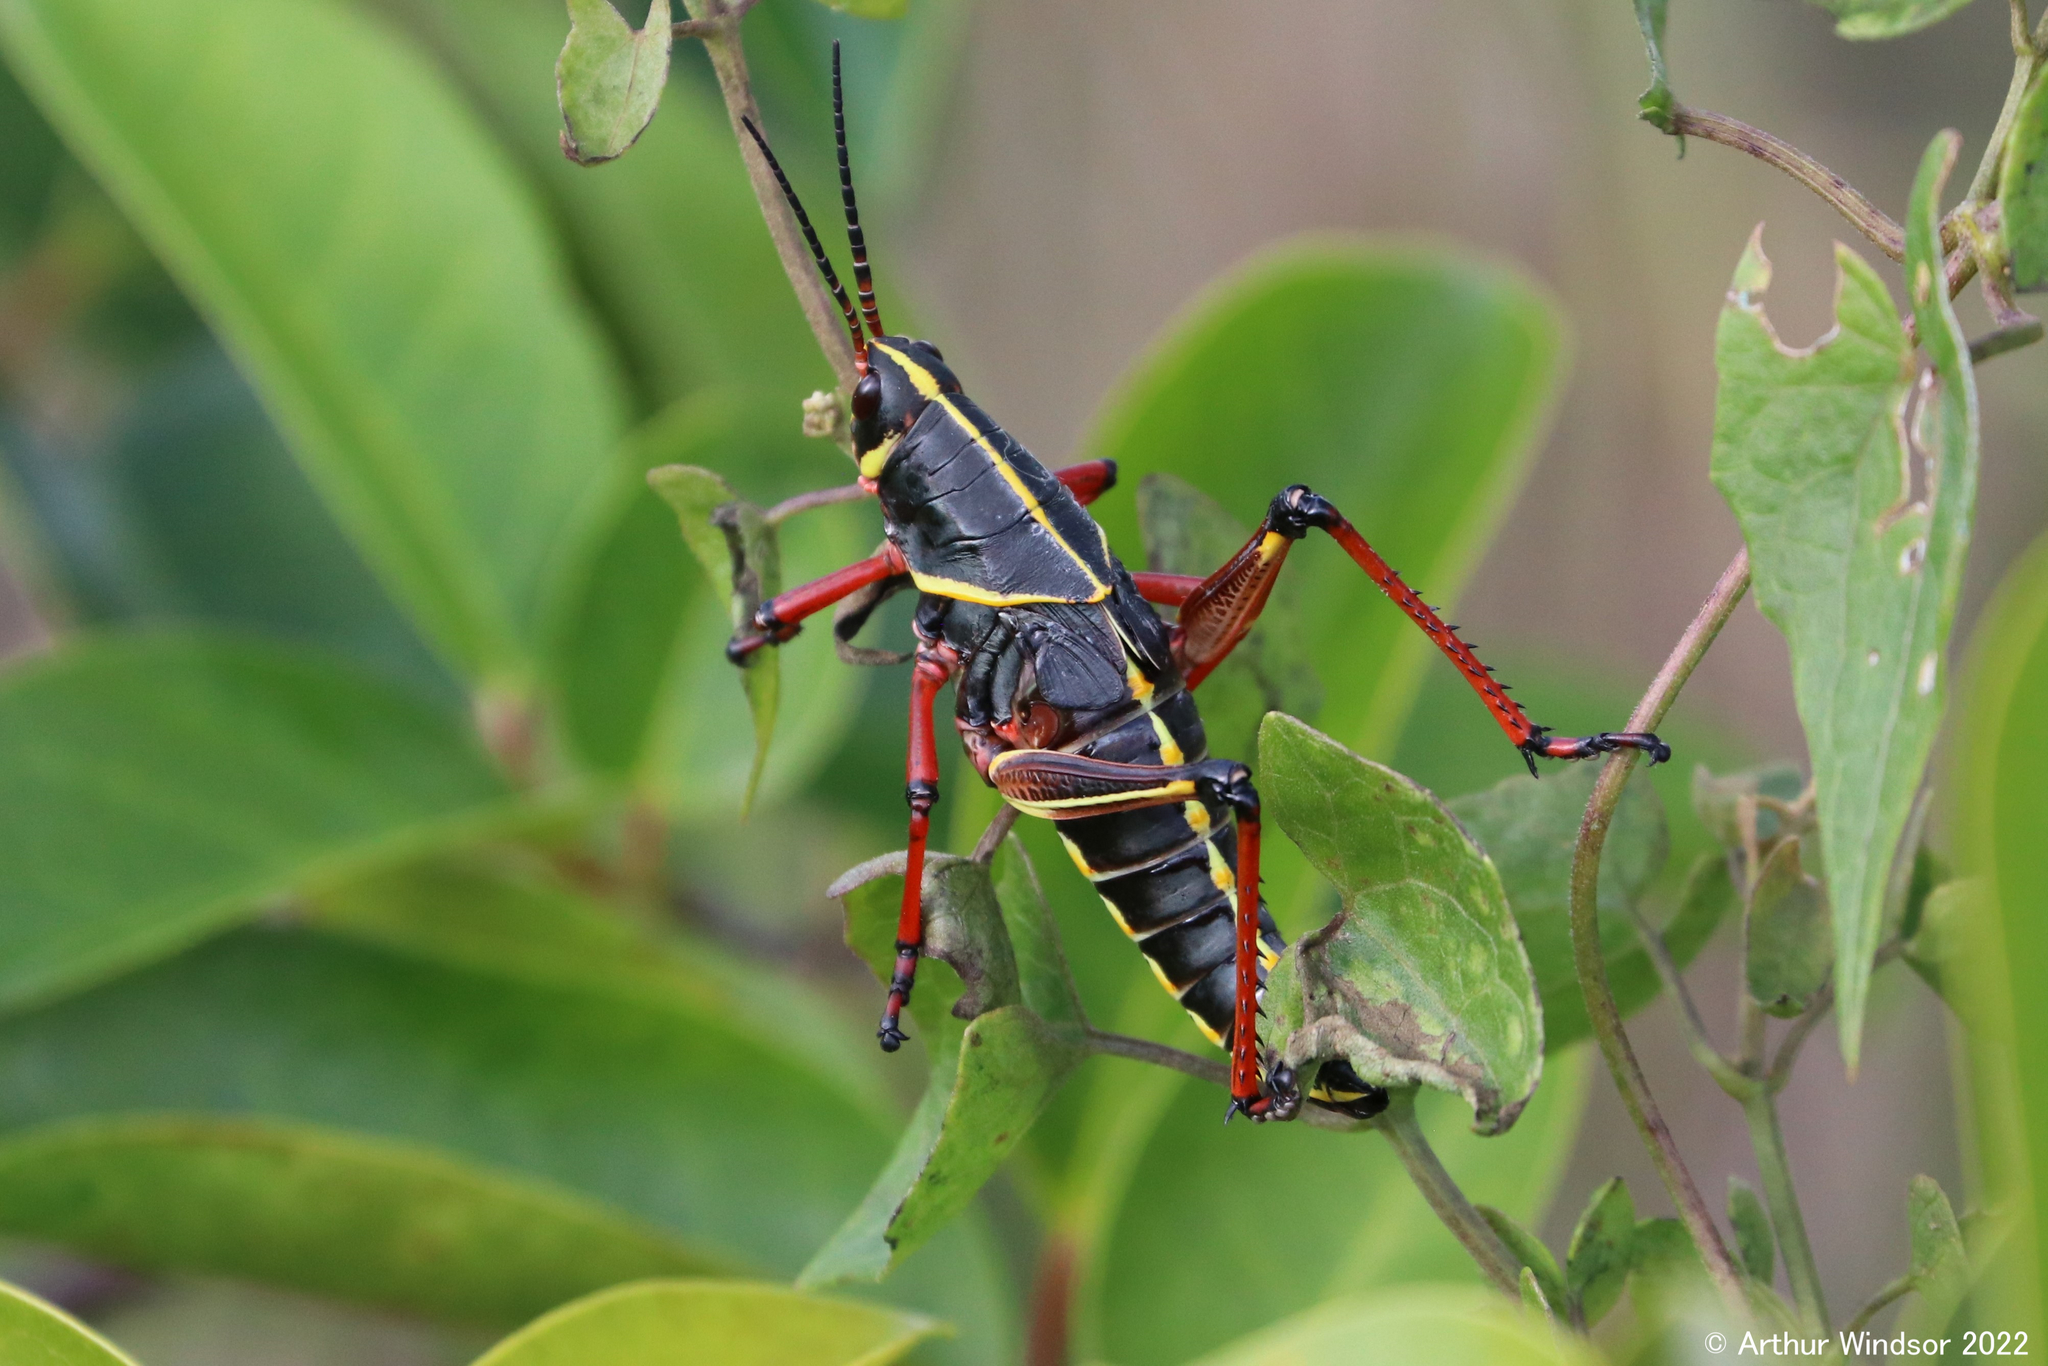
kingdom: Animalia
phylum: Arthropoda
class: Insecta
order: Orthoptera
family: Romaleidae
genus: Romalea
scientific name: Romalea microptera
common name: Eastern lubber grasshopper
